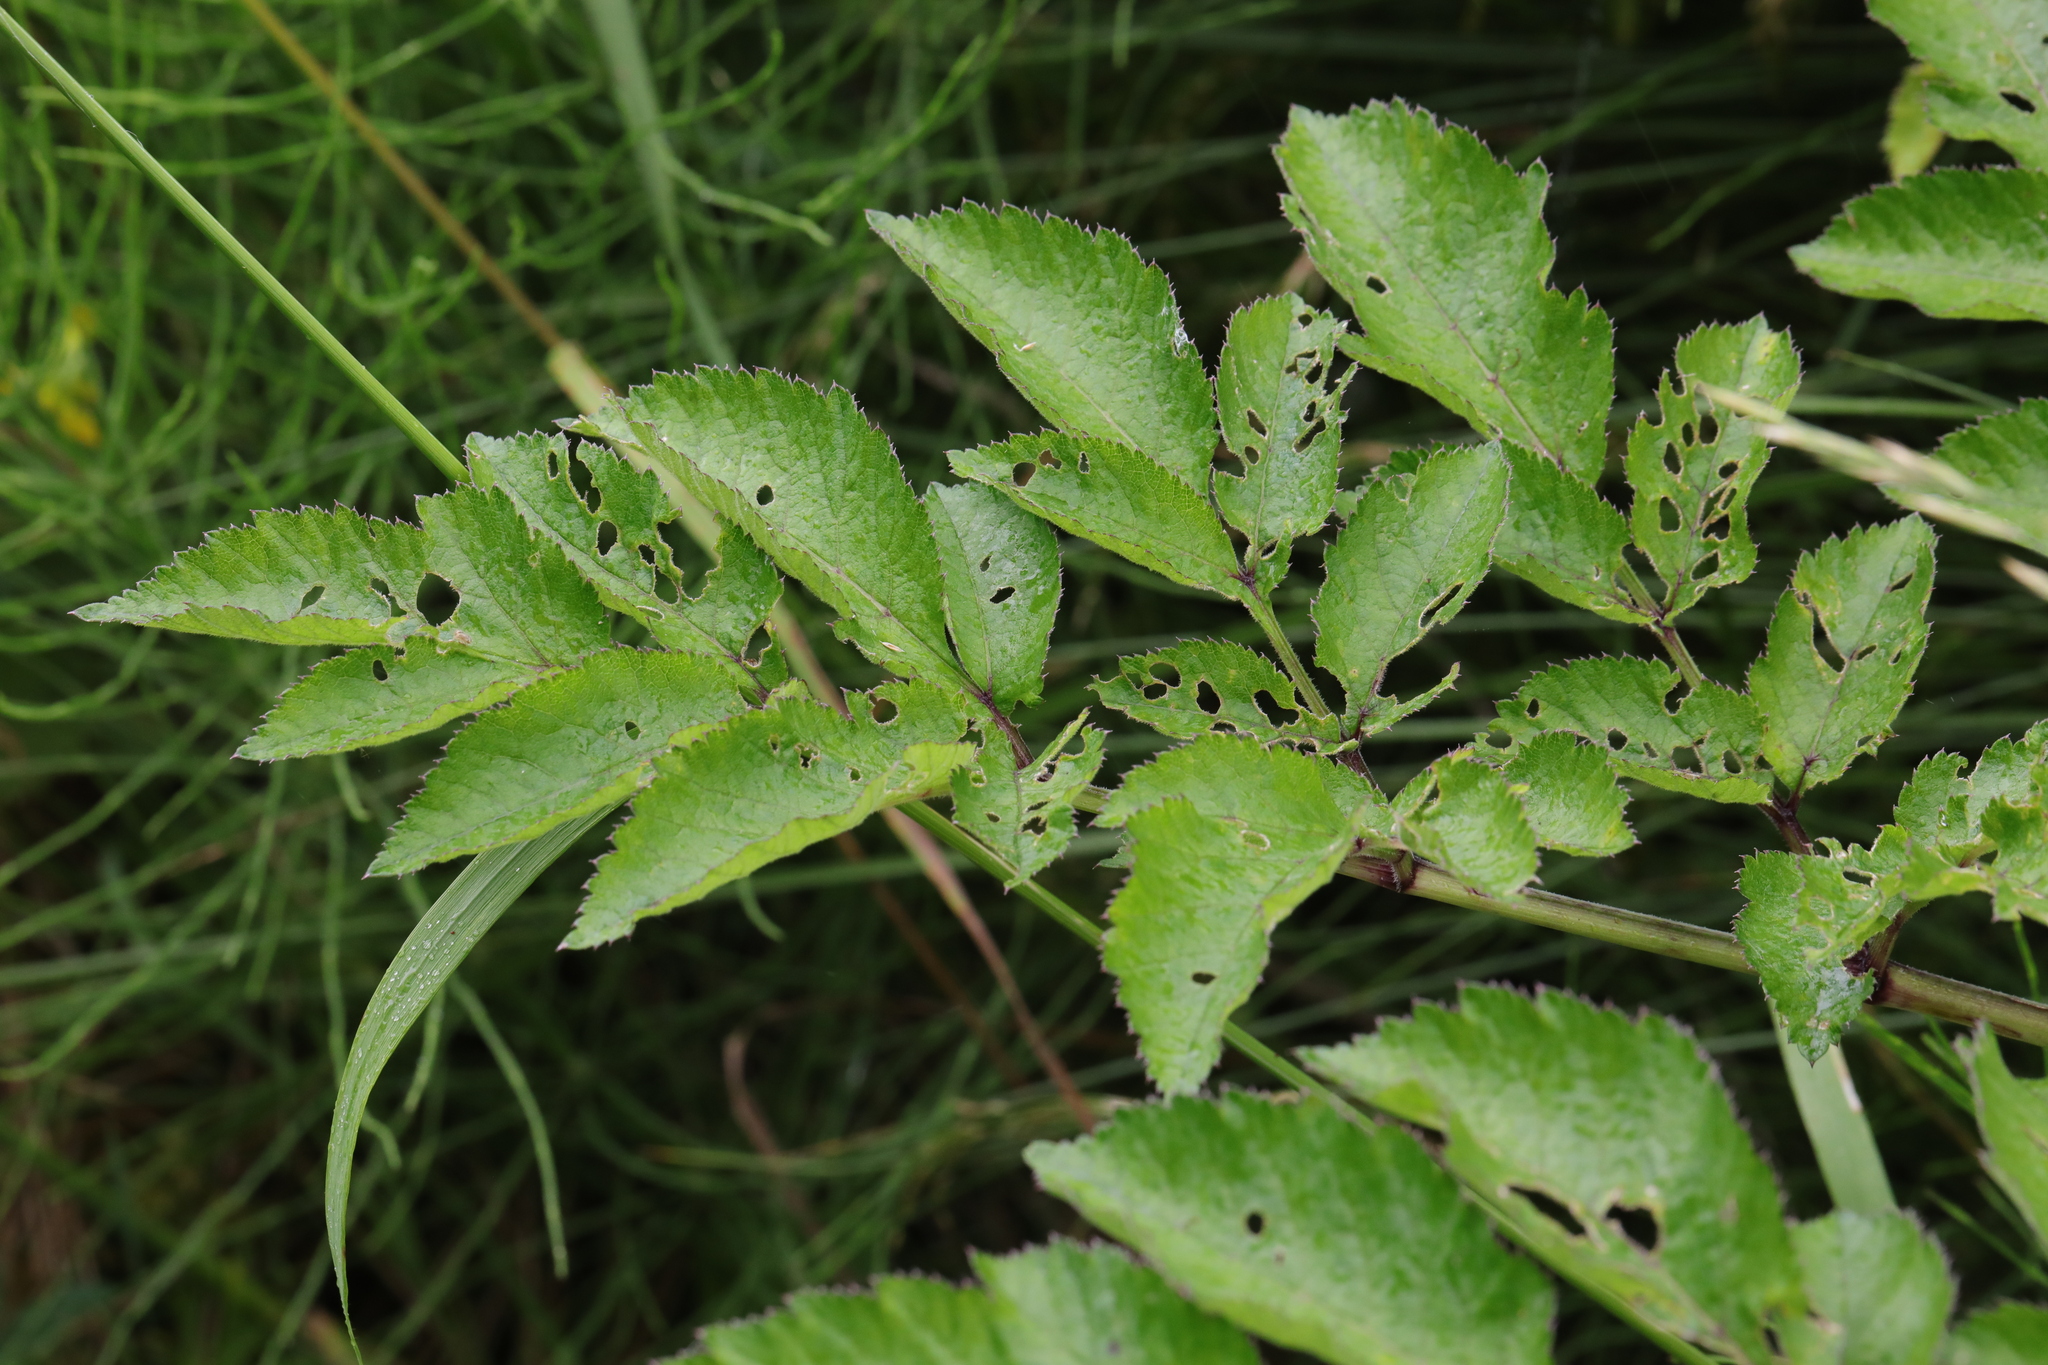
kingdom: Plantae
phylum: Tracheophyta
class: Magnoliopsida
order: Apiales
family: Apiaceae
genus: Angelica
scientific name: Angelica sylvestris
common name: Wild angelica
